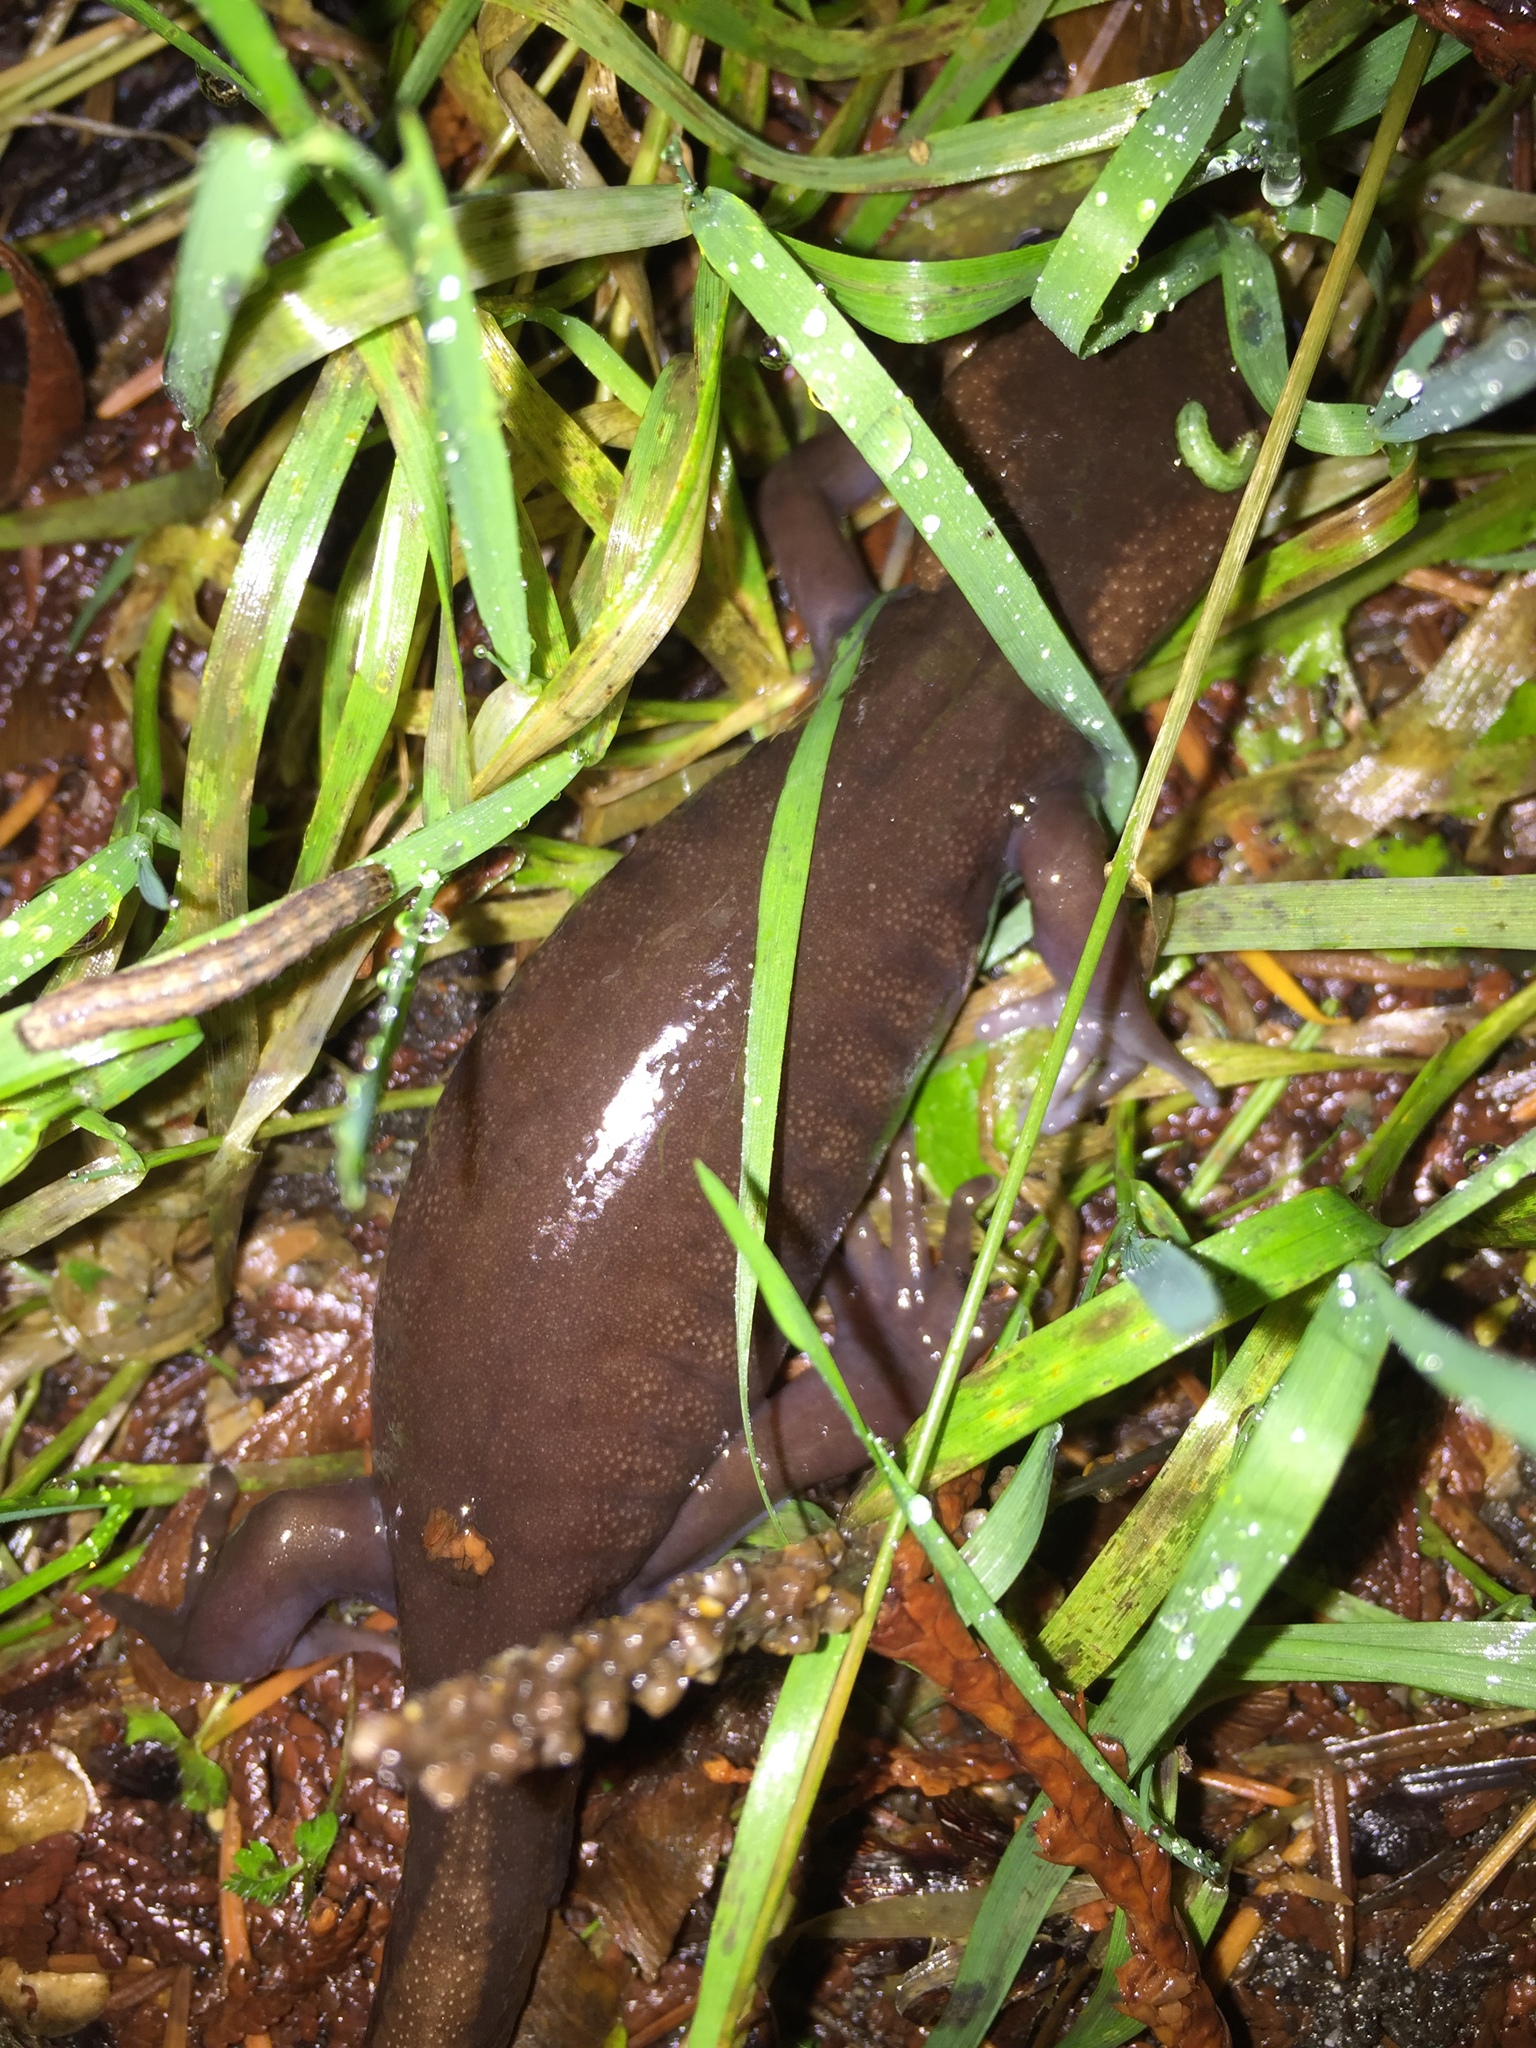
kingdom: Animalia
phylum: Chordata
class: Amphibia
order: Caudata
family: Ambystomatidae
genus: Ambystoma
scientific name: Ambystoma gracile
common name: Northwestern salamander
